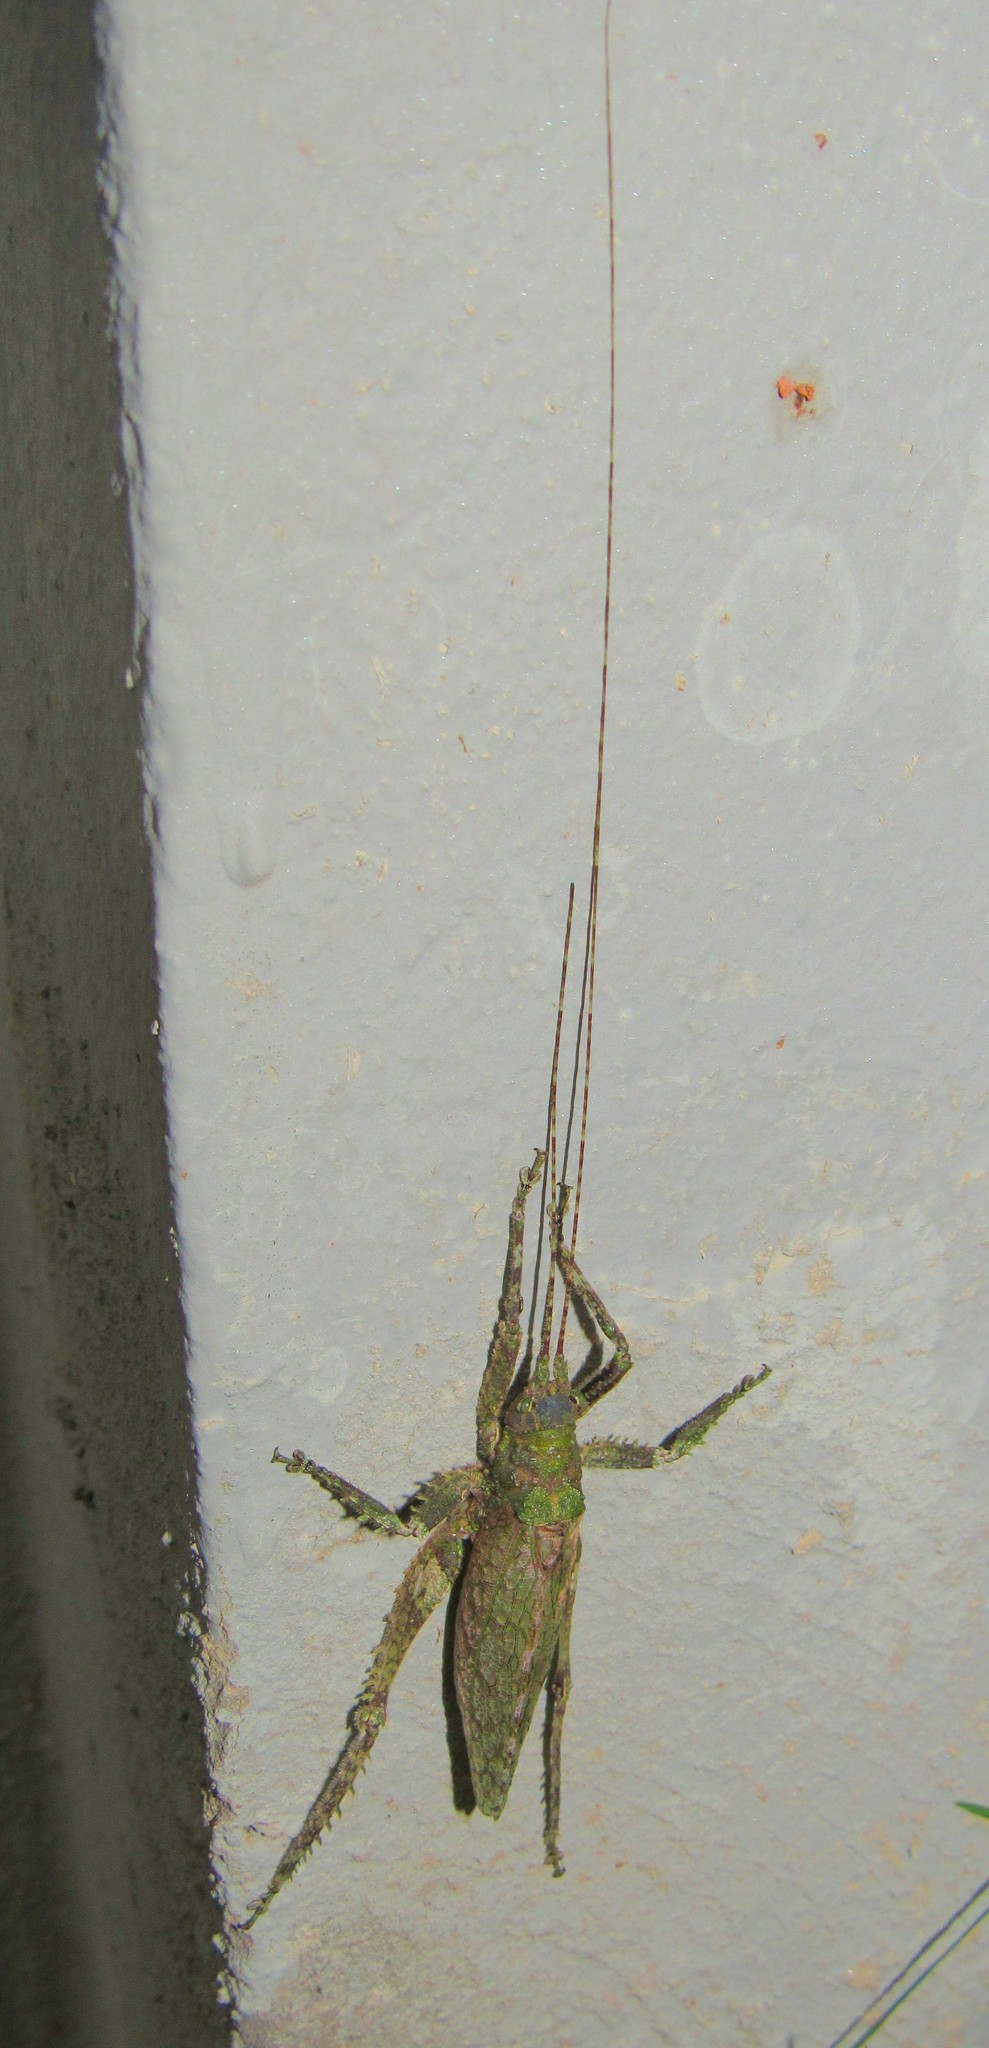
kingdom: Animalia
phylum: Arthropoda
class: Insecta
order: Orthoptera
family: Tettigoniidae
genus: Anonistus
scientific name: Anonistus scariosus
